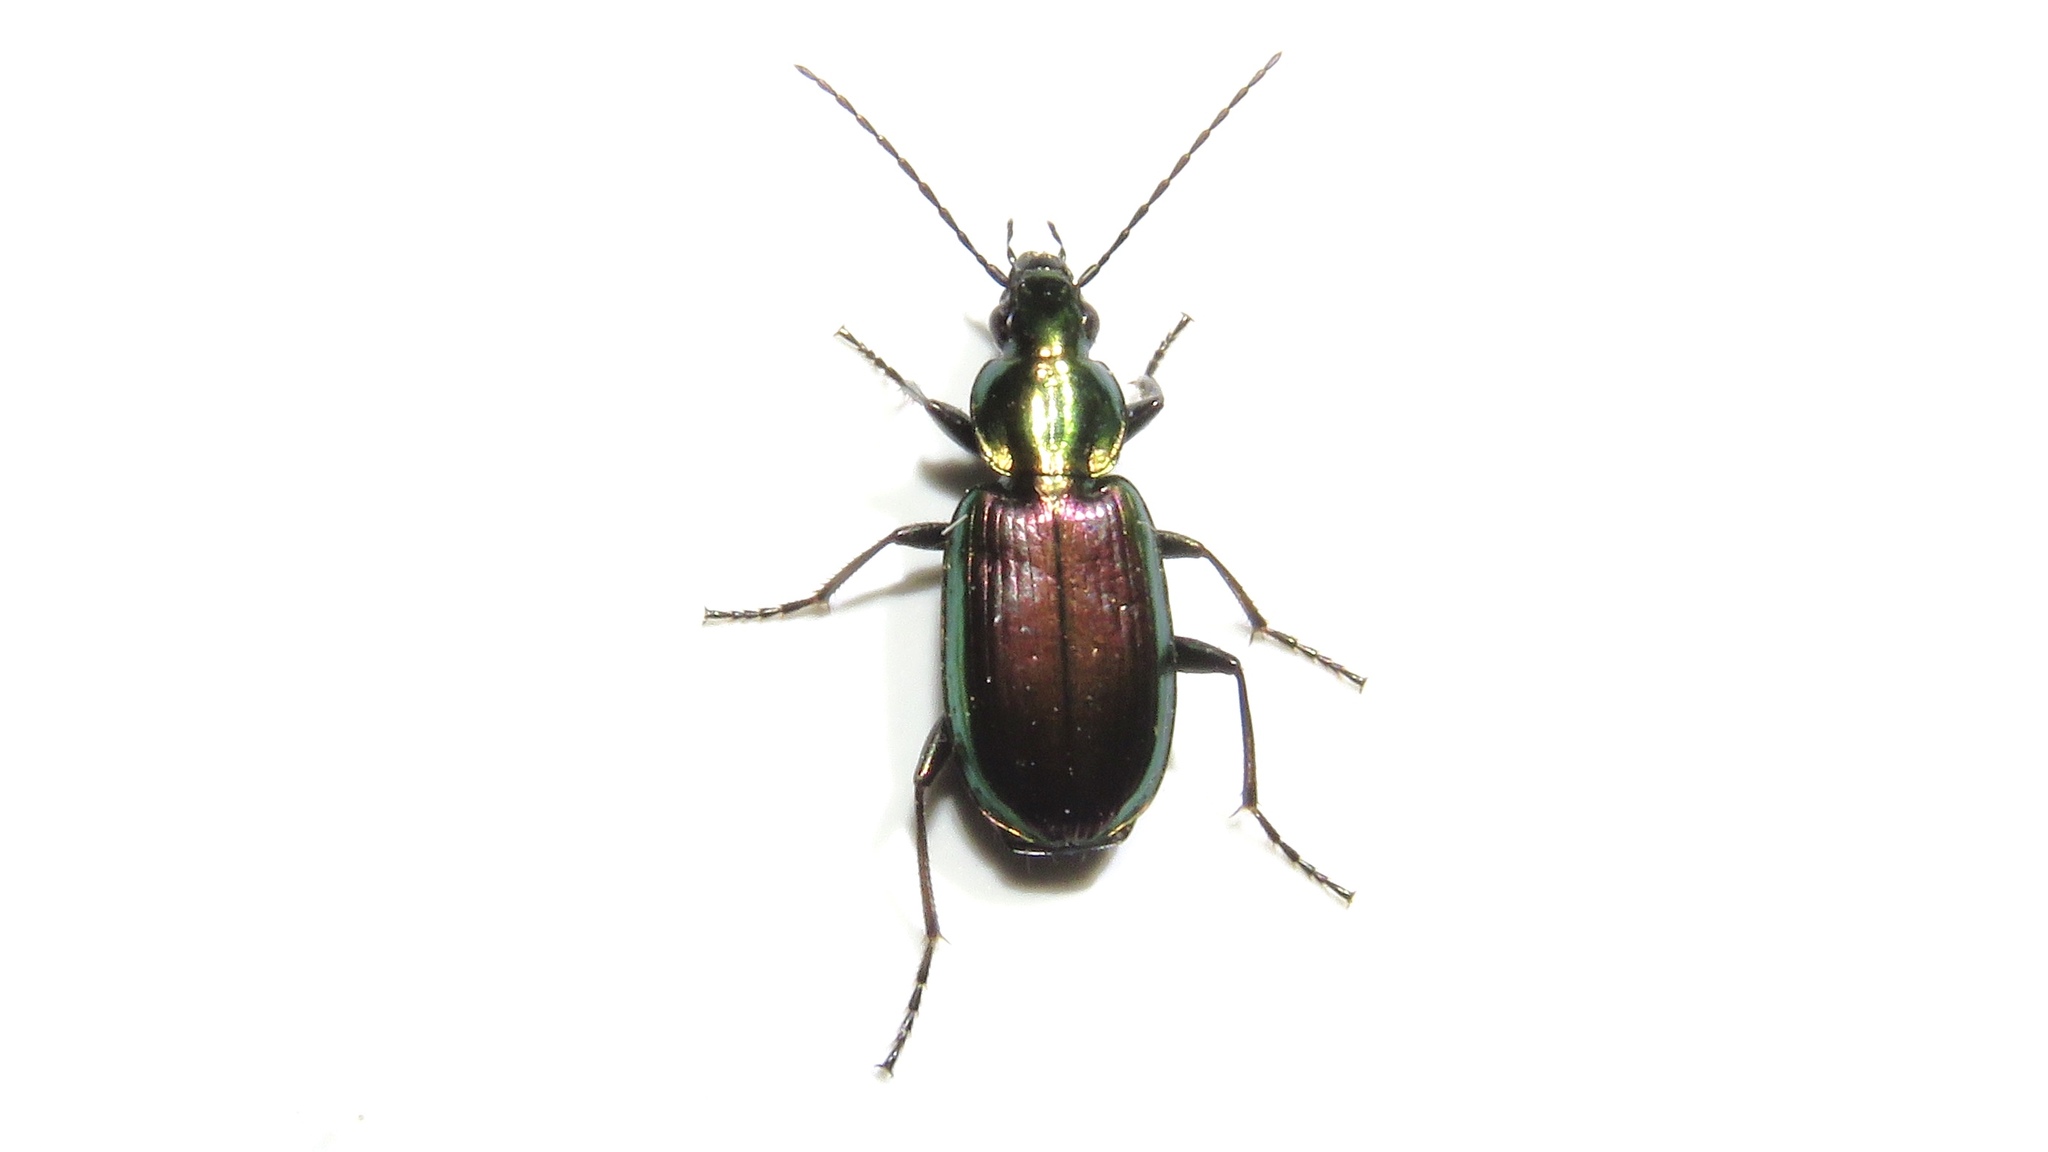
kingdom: Animalia
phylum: Arthropoda
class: Insecta
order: Coleoptera
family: Carabidae
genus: Agonum
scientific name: Agonum cupripenne
